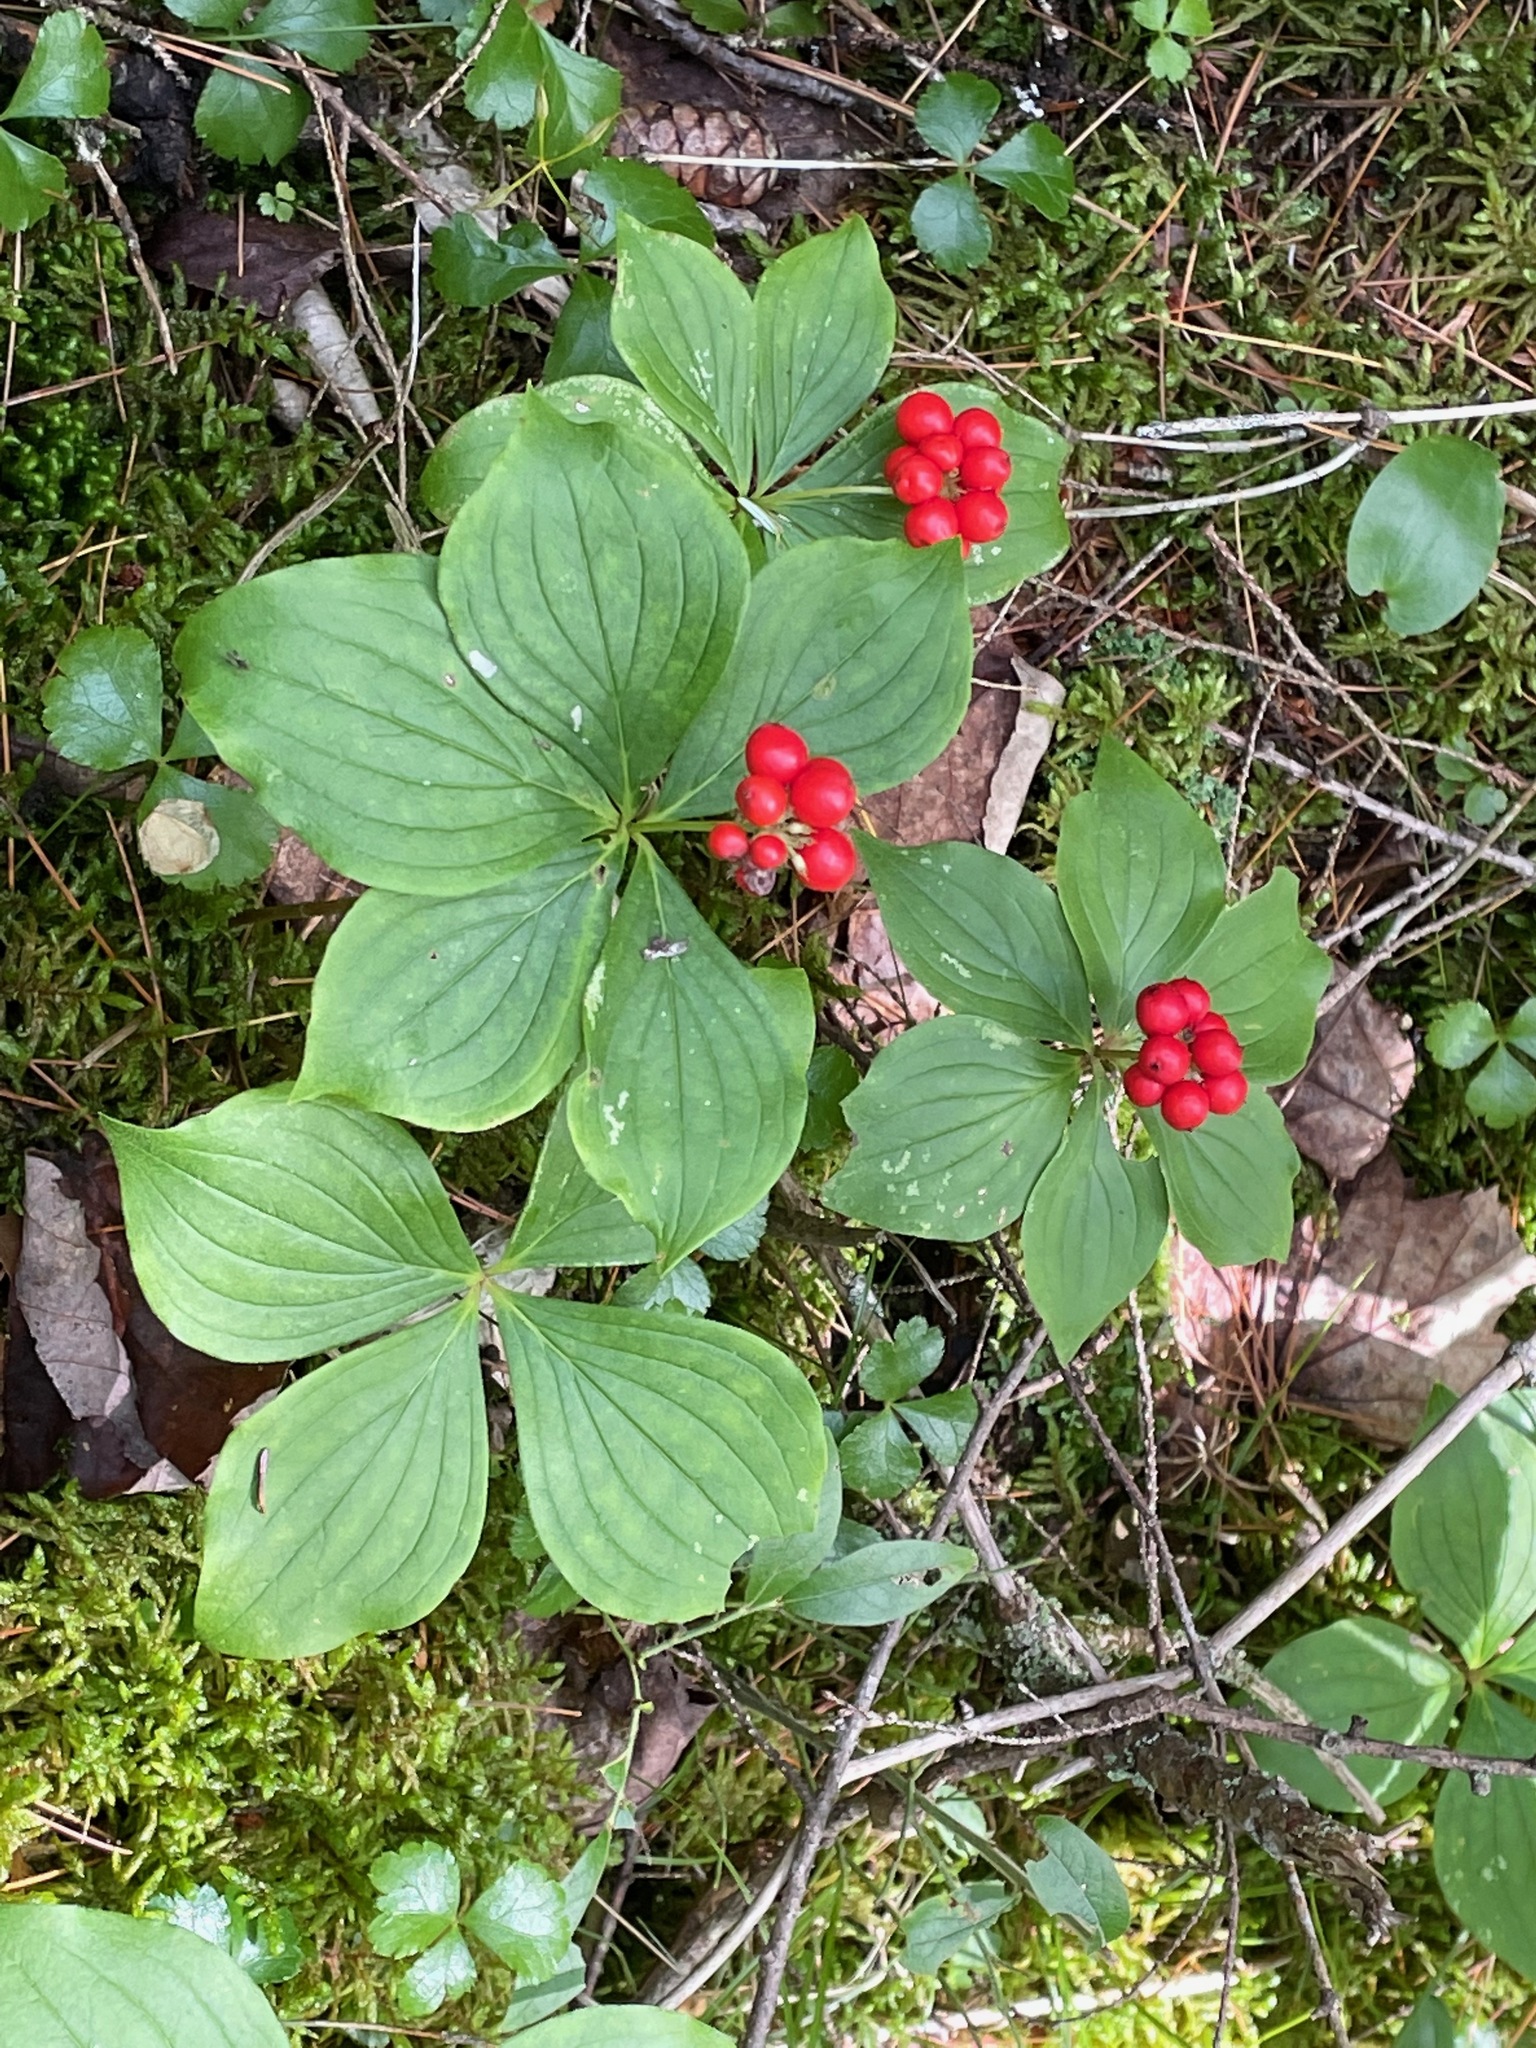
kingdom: Plantae
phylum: Tracheophyta
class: Magnoliopsida
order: Cornales
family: Cornaceae
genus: Cornus
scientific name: Cornus canadensis
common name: Creeping dogwood
